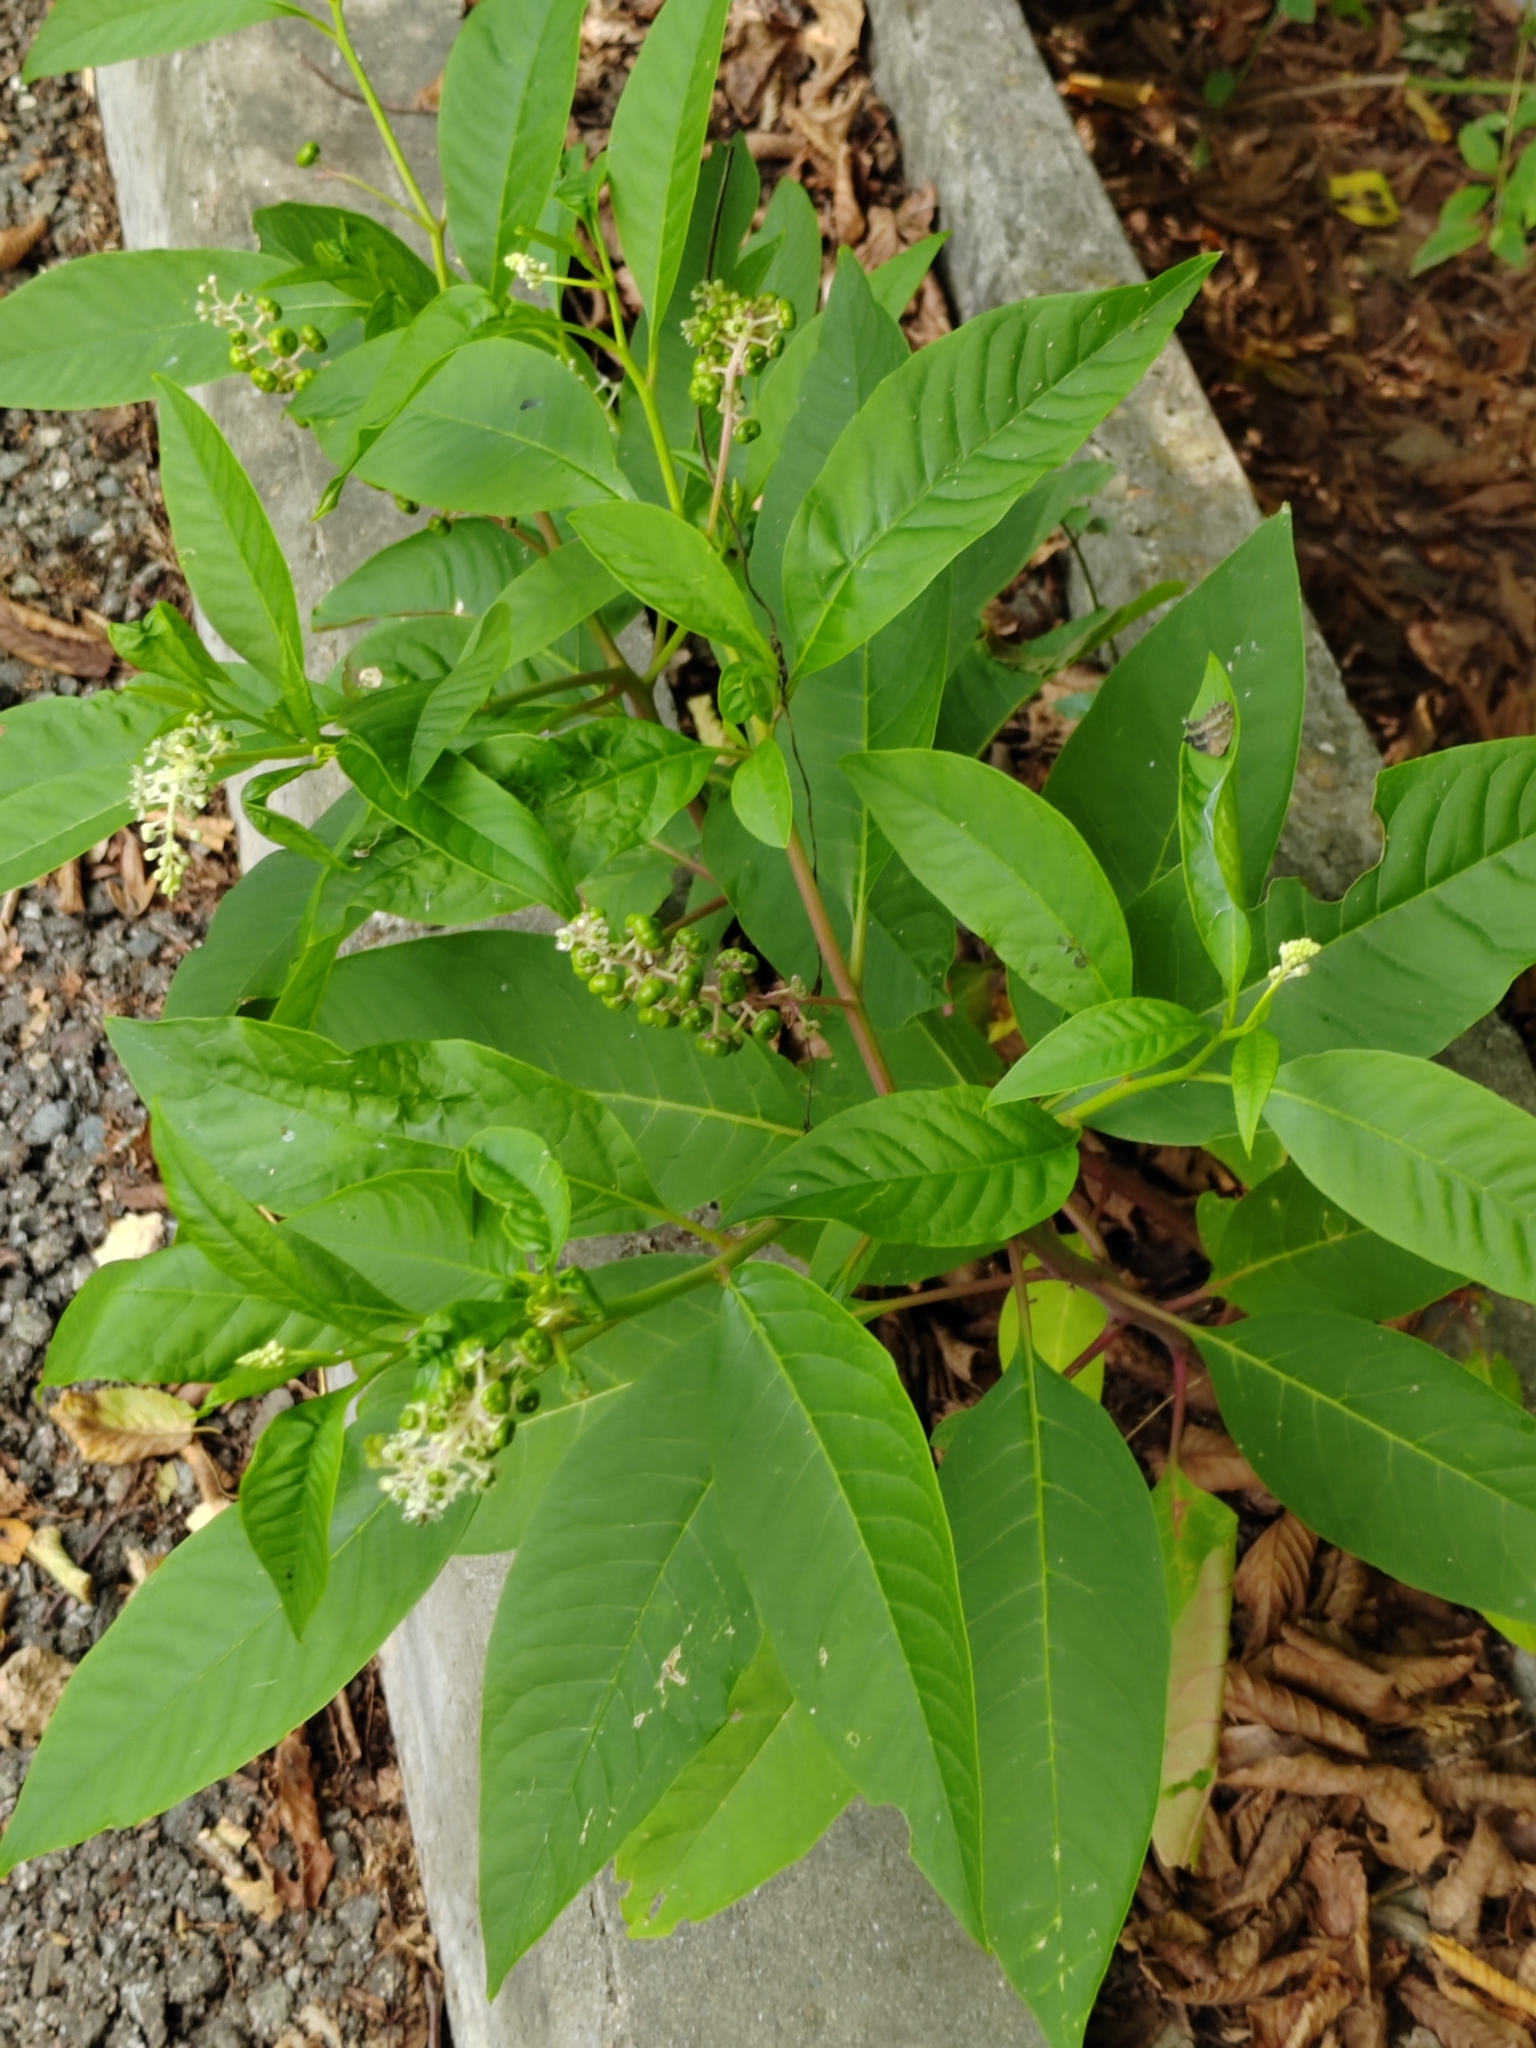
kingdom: Plantae
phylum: Tracheophyta
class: Magnoliopsida
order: Caryophyllales
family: Phytolaccaceae
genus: Phytolacca
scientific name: Phytolacca americana
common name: American pokeweed
